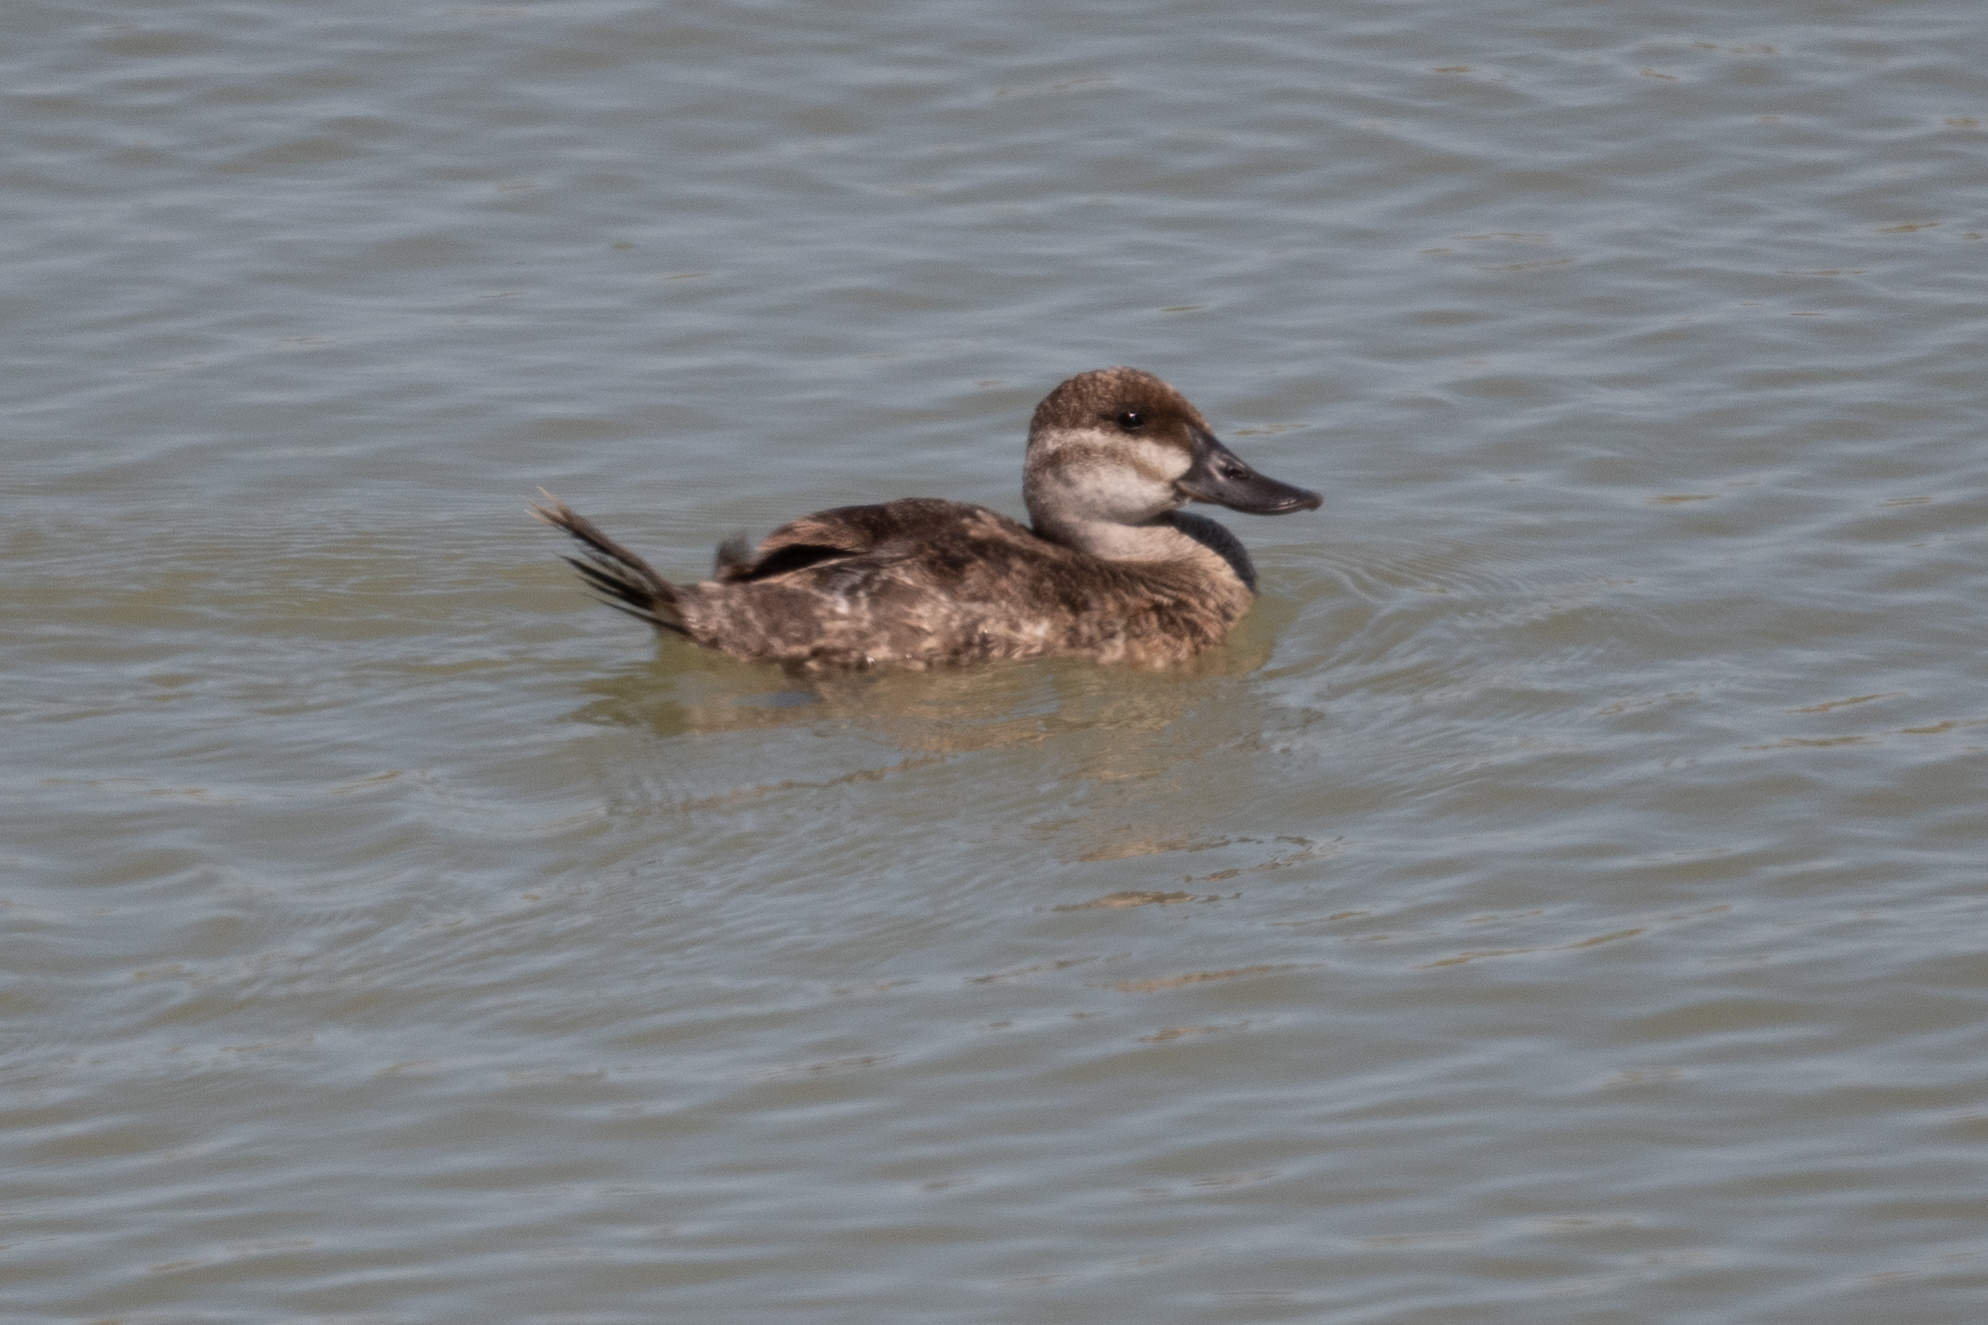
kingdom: Animalia
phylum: Chordata
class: Aves
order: Anseriformes
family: Anatidae
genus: Oxyura
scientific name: Oxyura jamaicensis
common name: Ruddy duck
